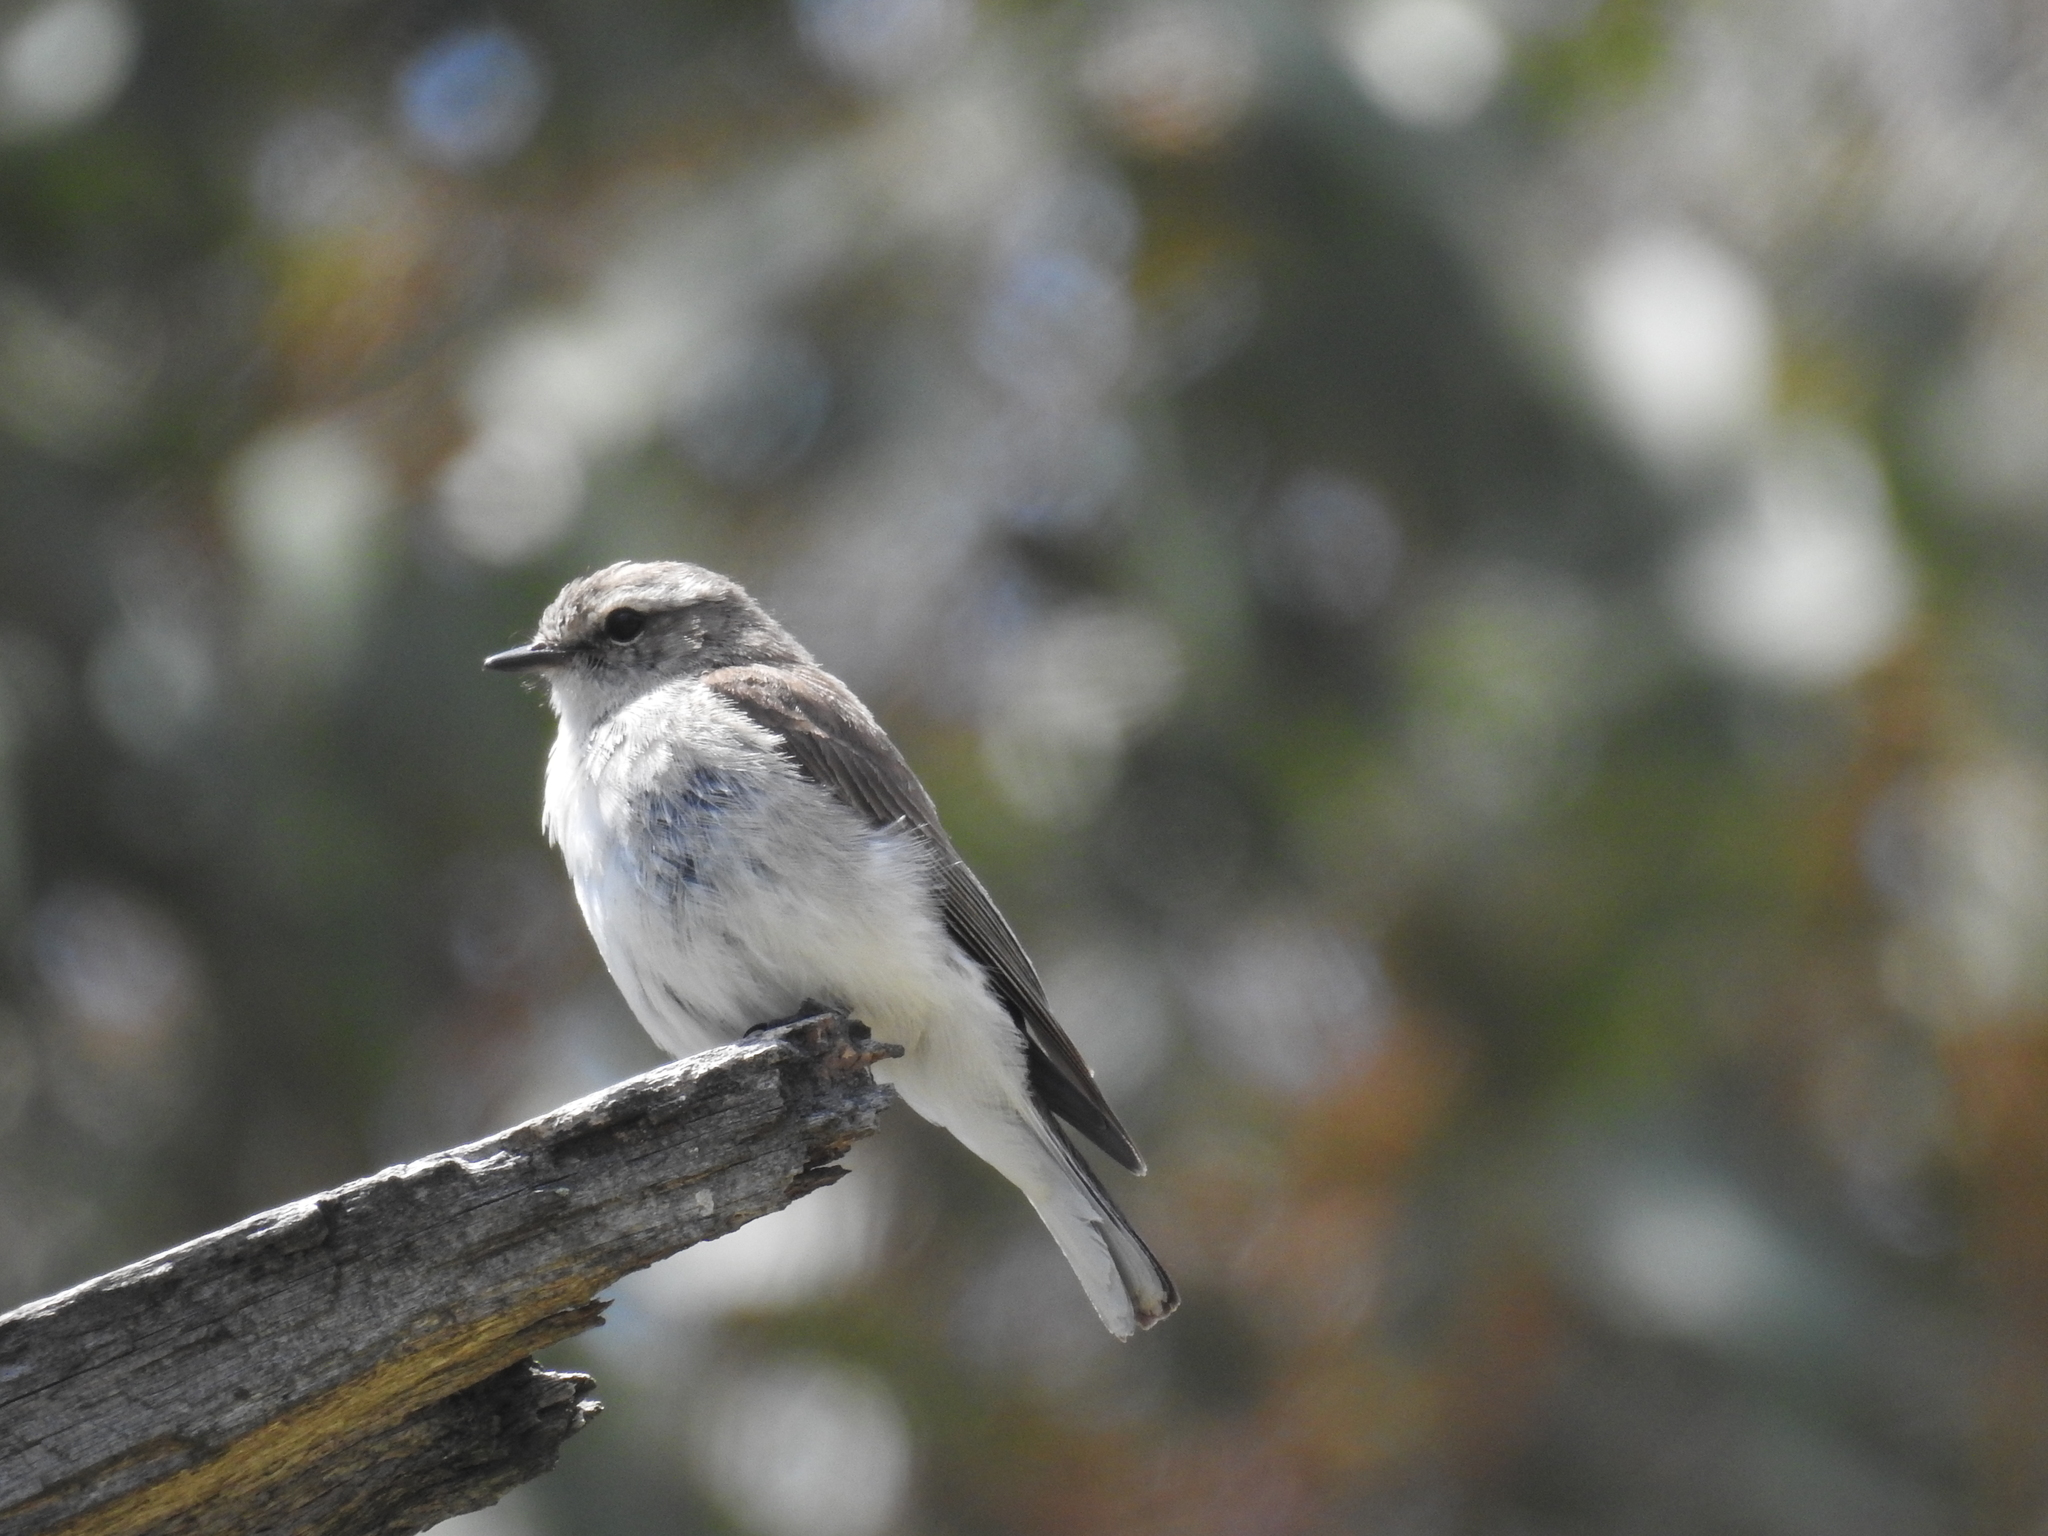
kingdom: Animalia
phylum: Chordata
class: Aves
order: Passeriformes
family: Petroicidae
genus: Microeca
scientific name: Microeca fascinans
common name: Jacky winter
